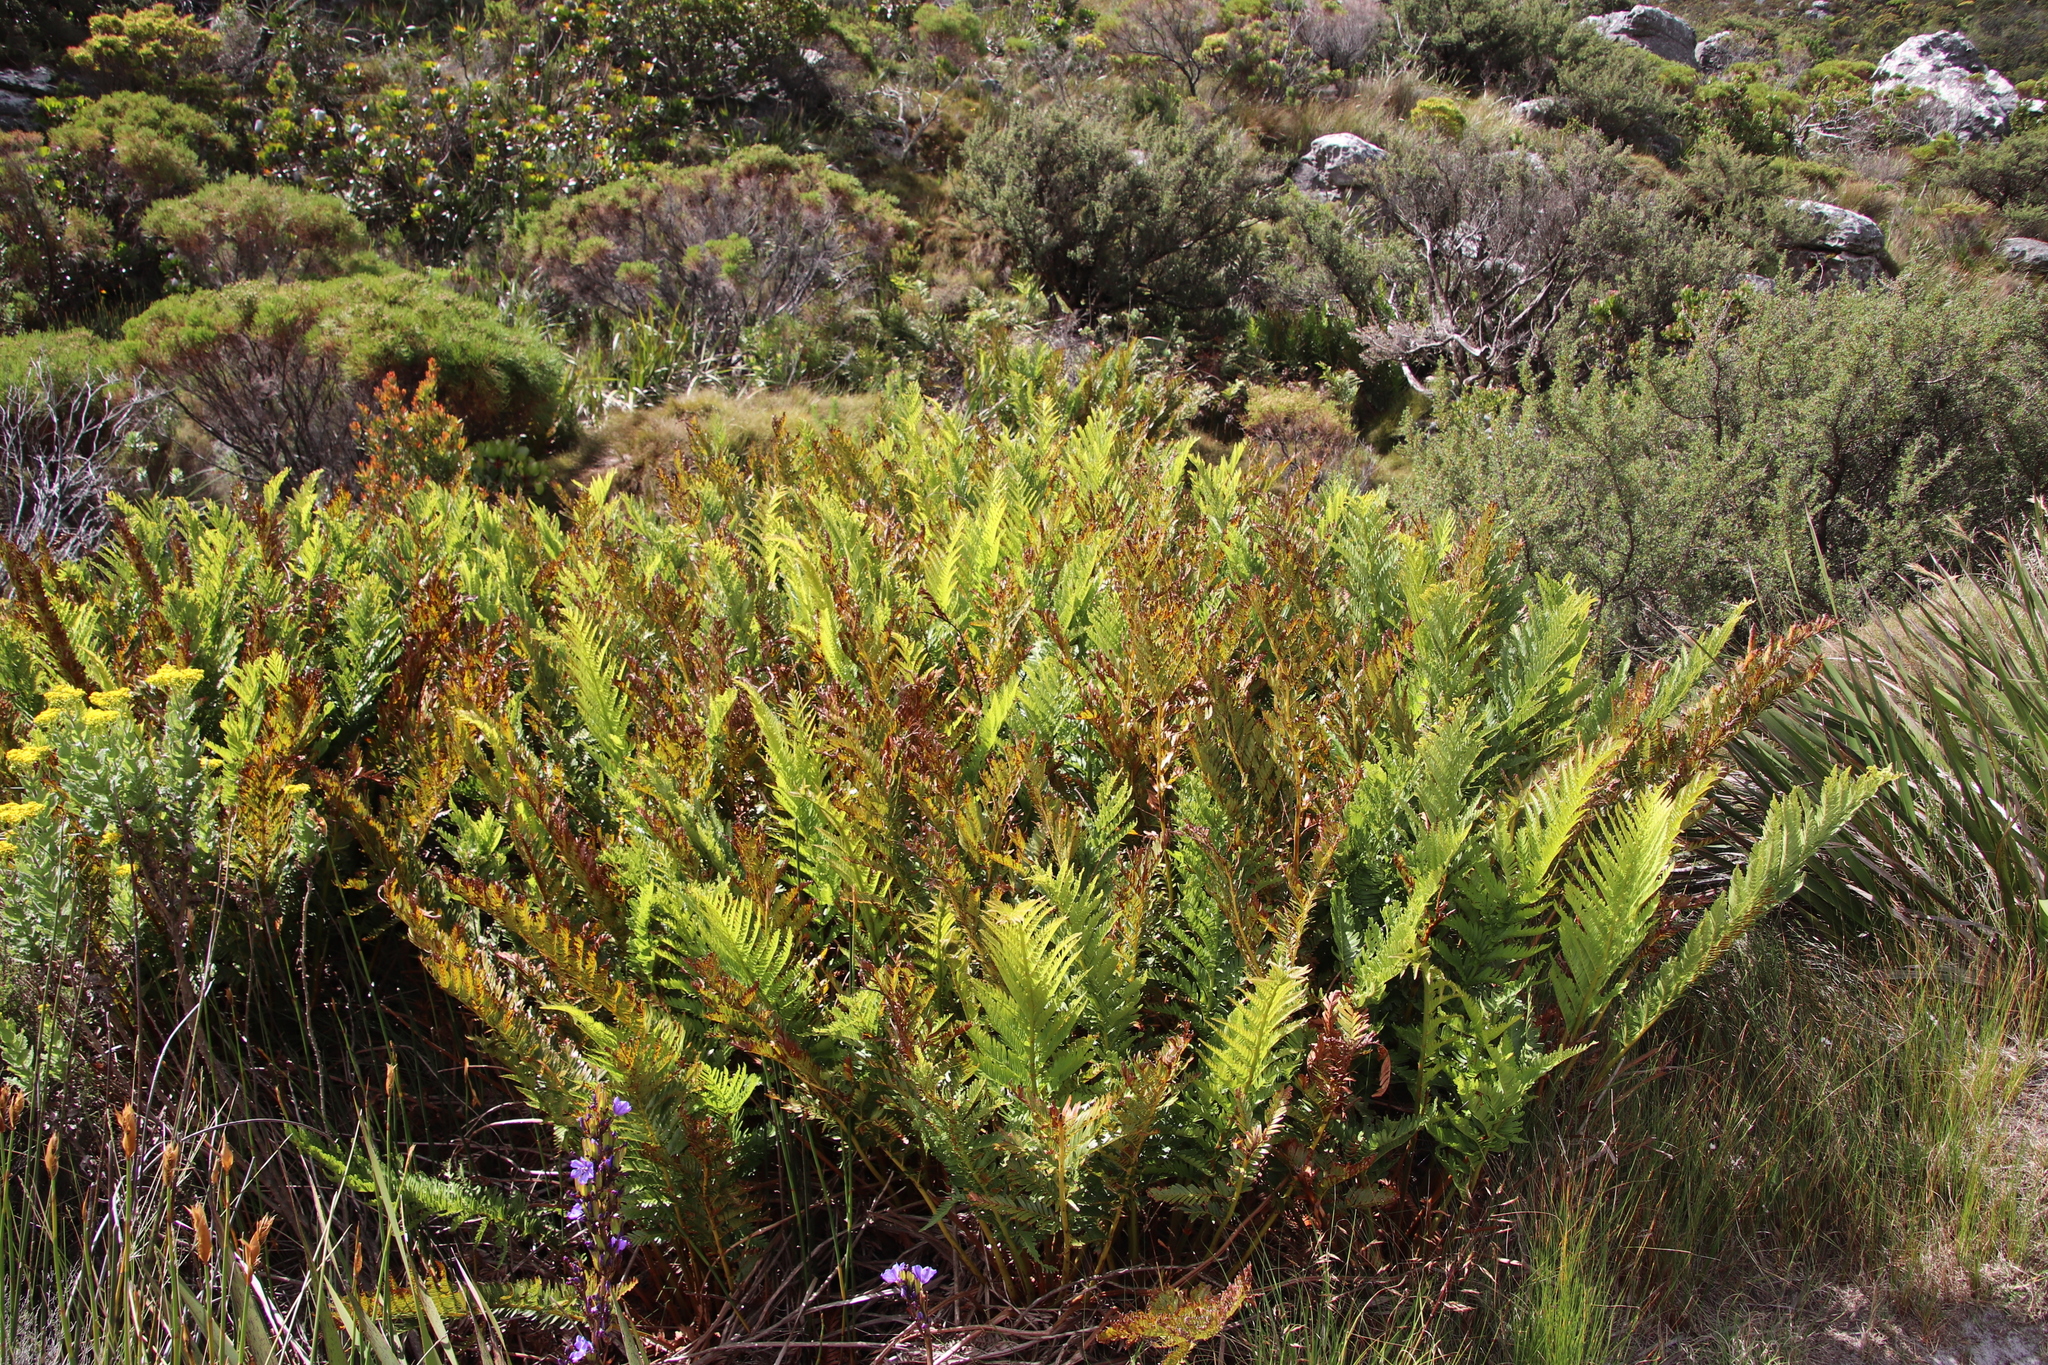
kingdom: Plantae
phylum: Tracheophyta
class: Polypodiopsida
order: Osmundales
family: Osmundaceae
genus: Todea
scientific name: Todea barbara
